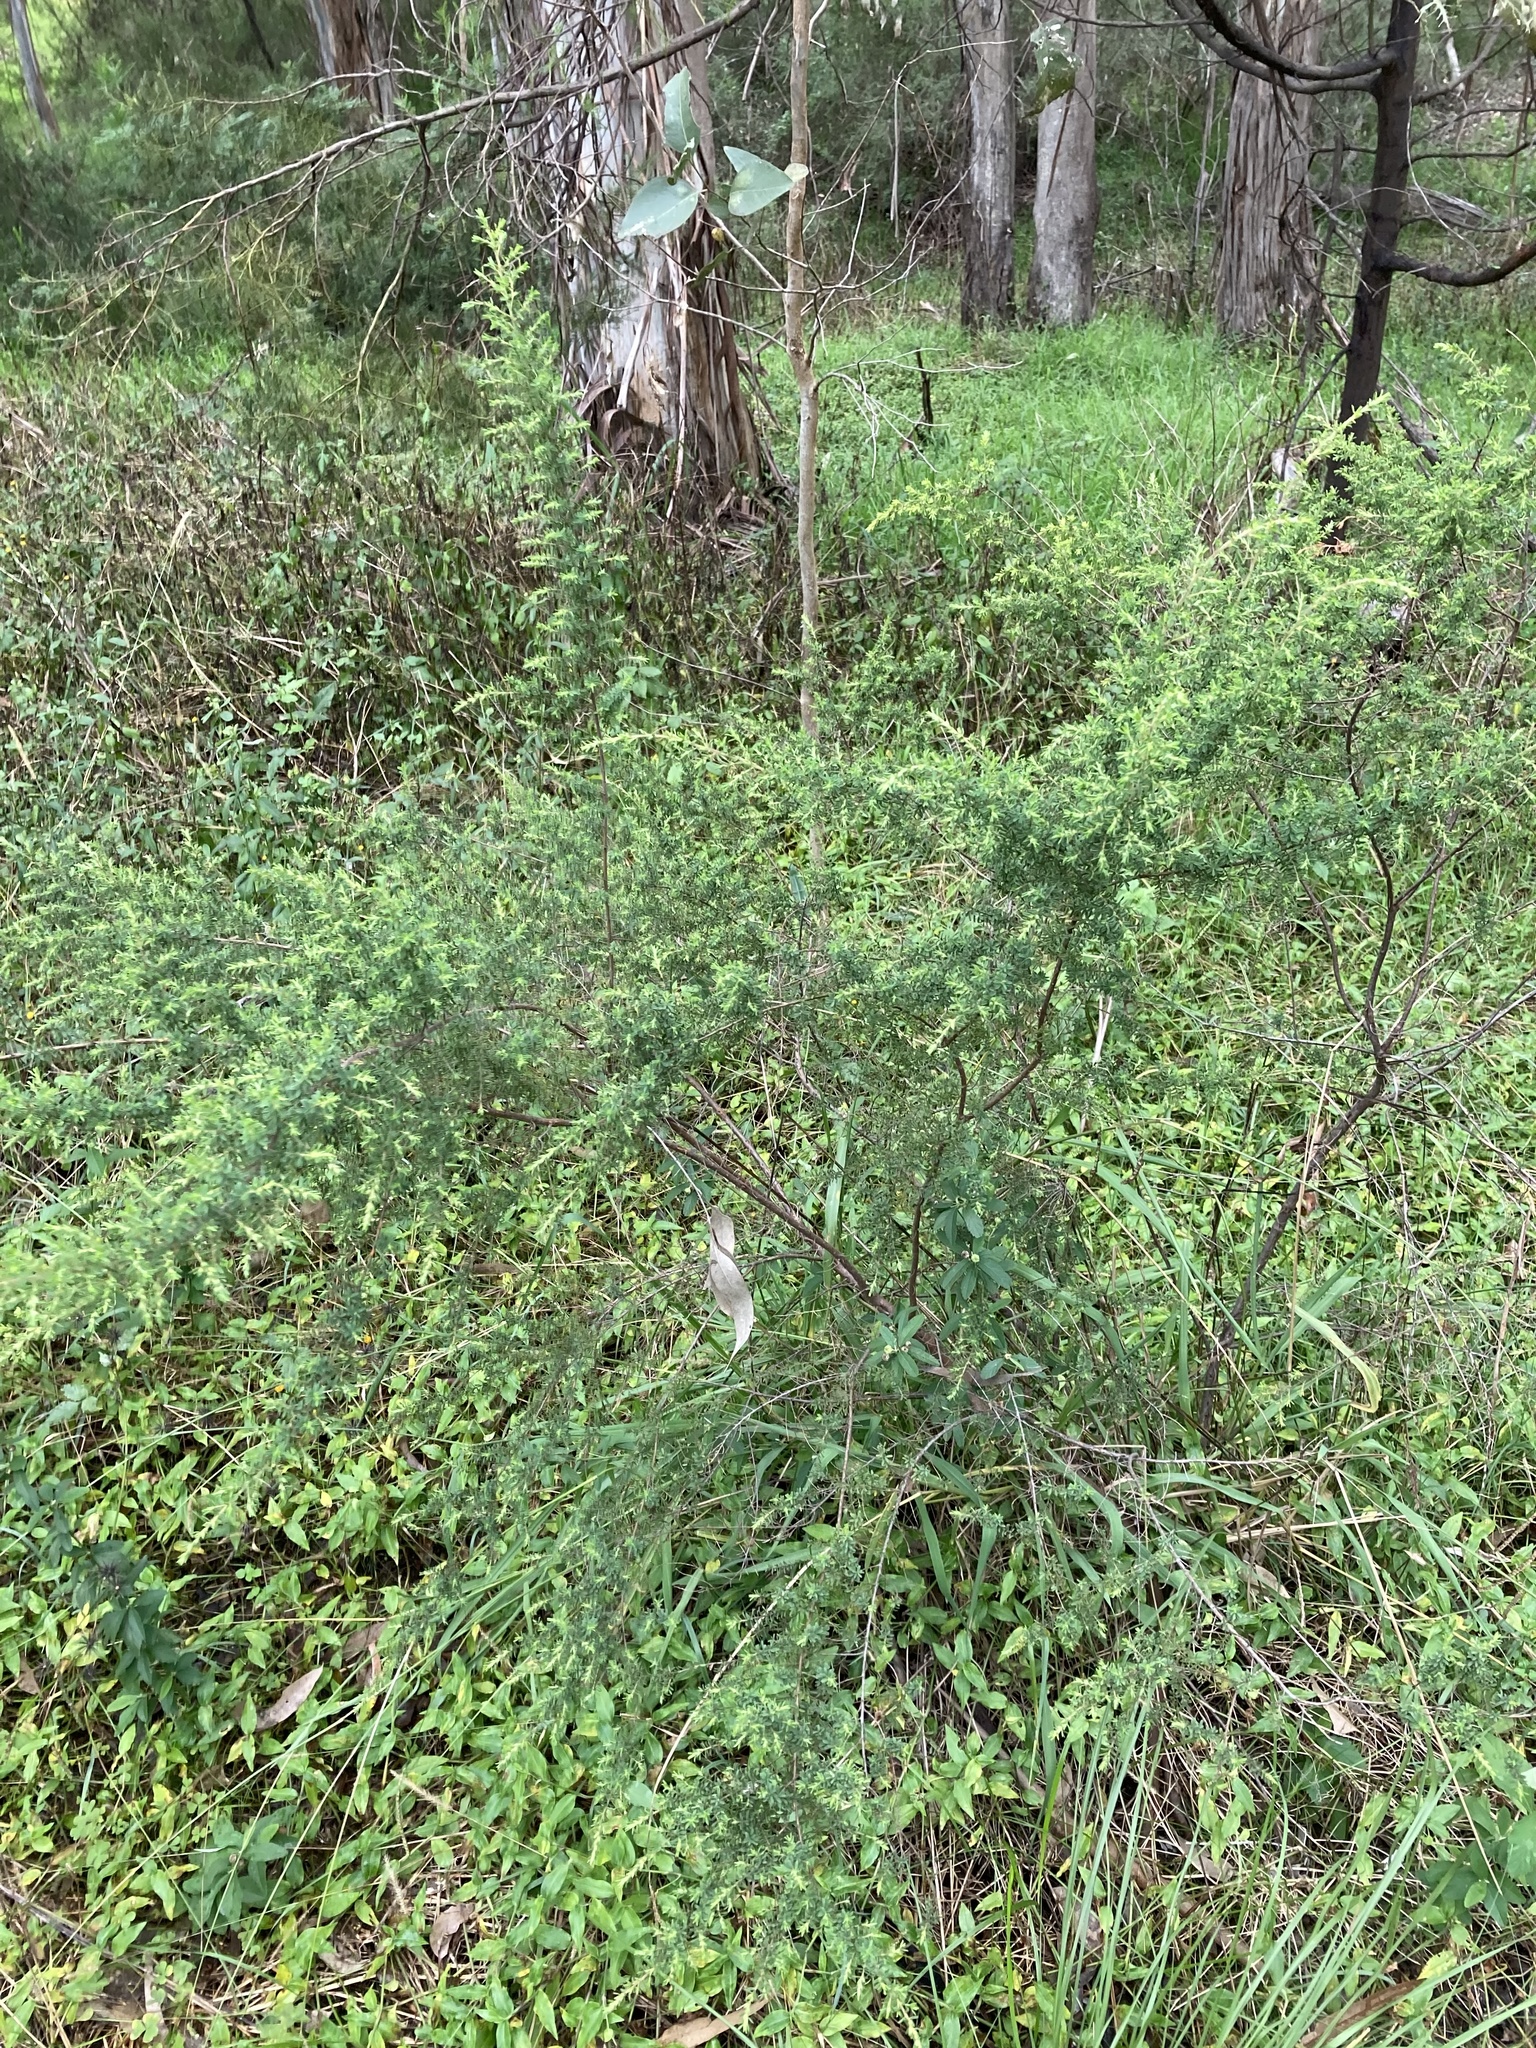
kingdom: Plantae
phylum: Tracheophyta
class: Magnoliopsida
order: Fabales
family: Fabaceae
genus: Pultenaea
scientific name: Pultenaea villosa
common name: Bronze bush-pea
